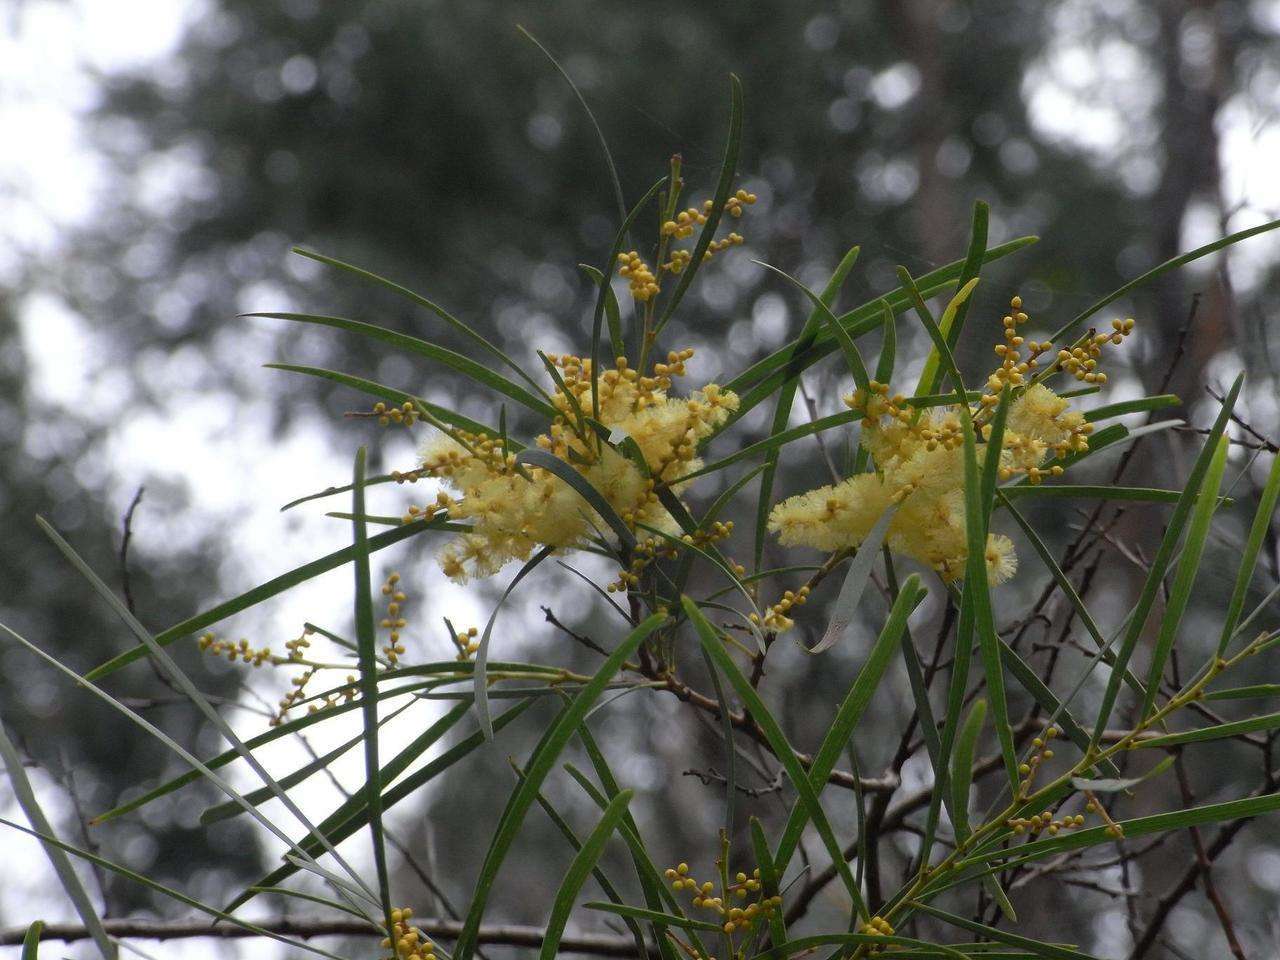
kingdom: Plantae
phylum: Tracheophyta
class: Magnoliopsida
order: Fabales
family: Fabaceae
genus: Acacia
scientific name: Acacia mucronata
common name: Variable sallow wattle
